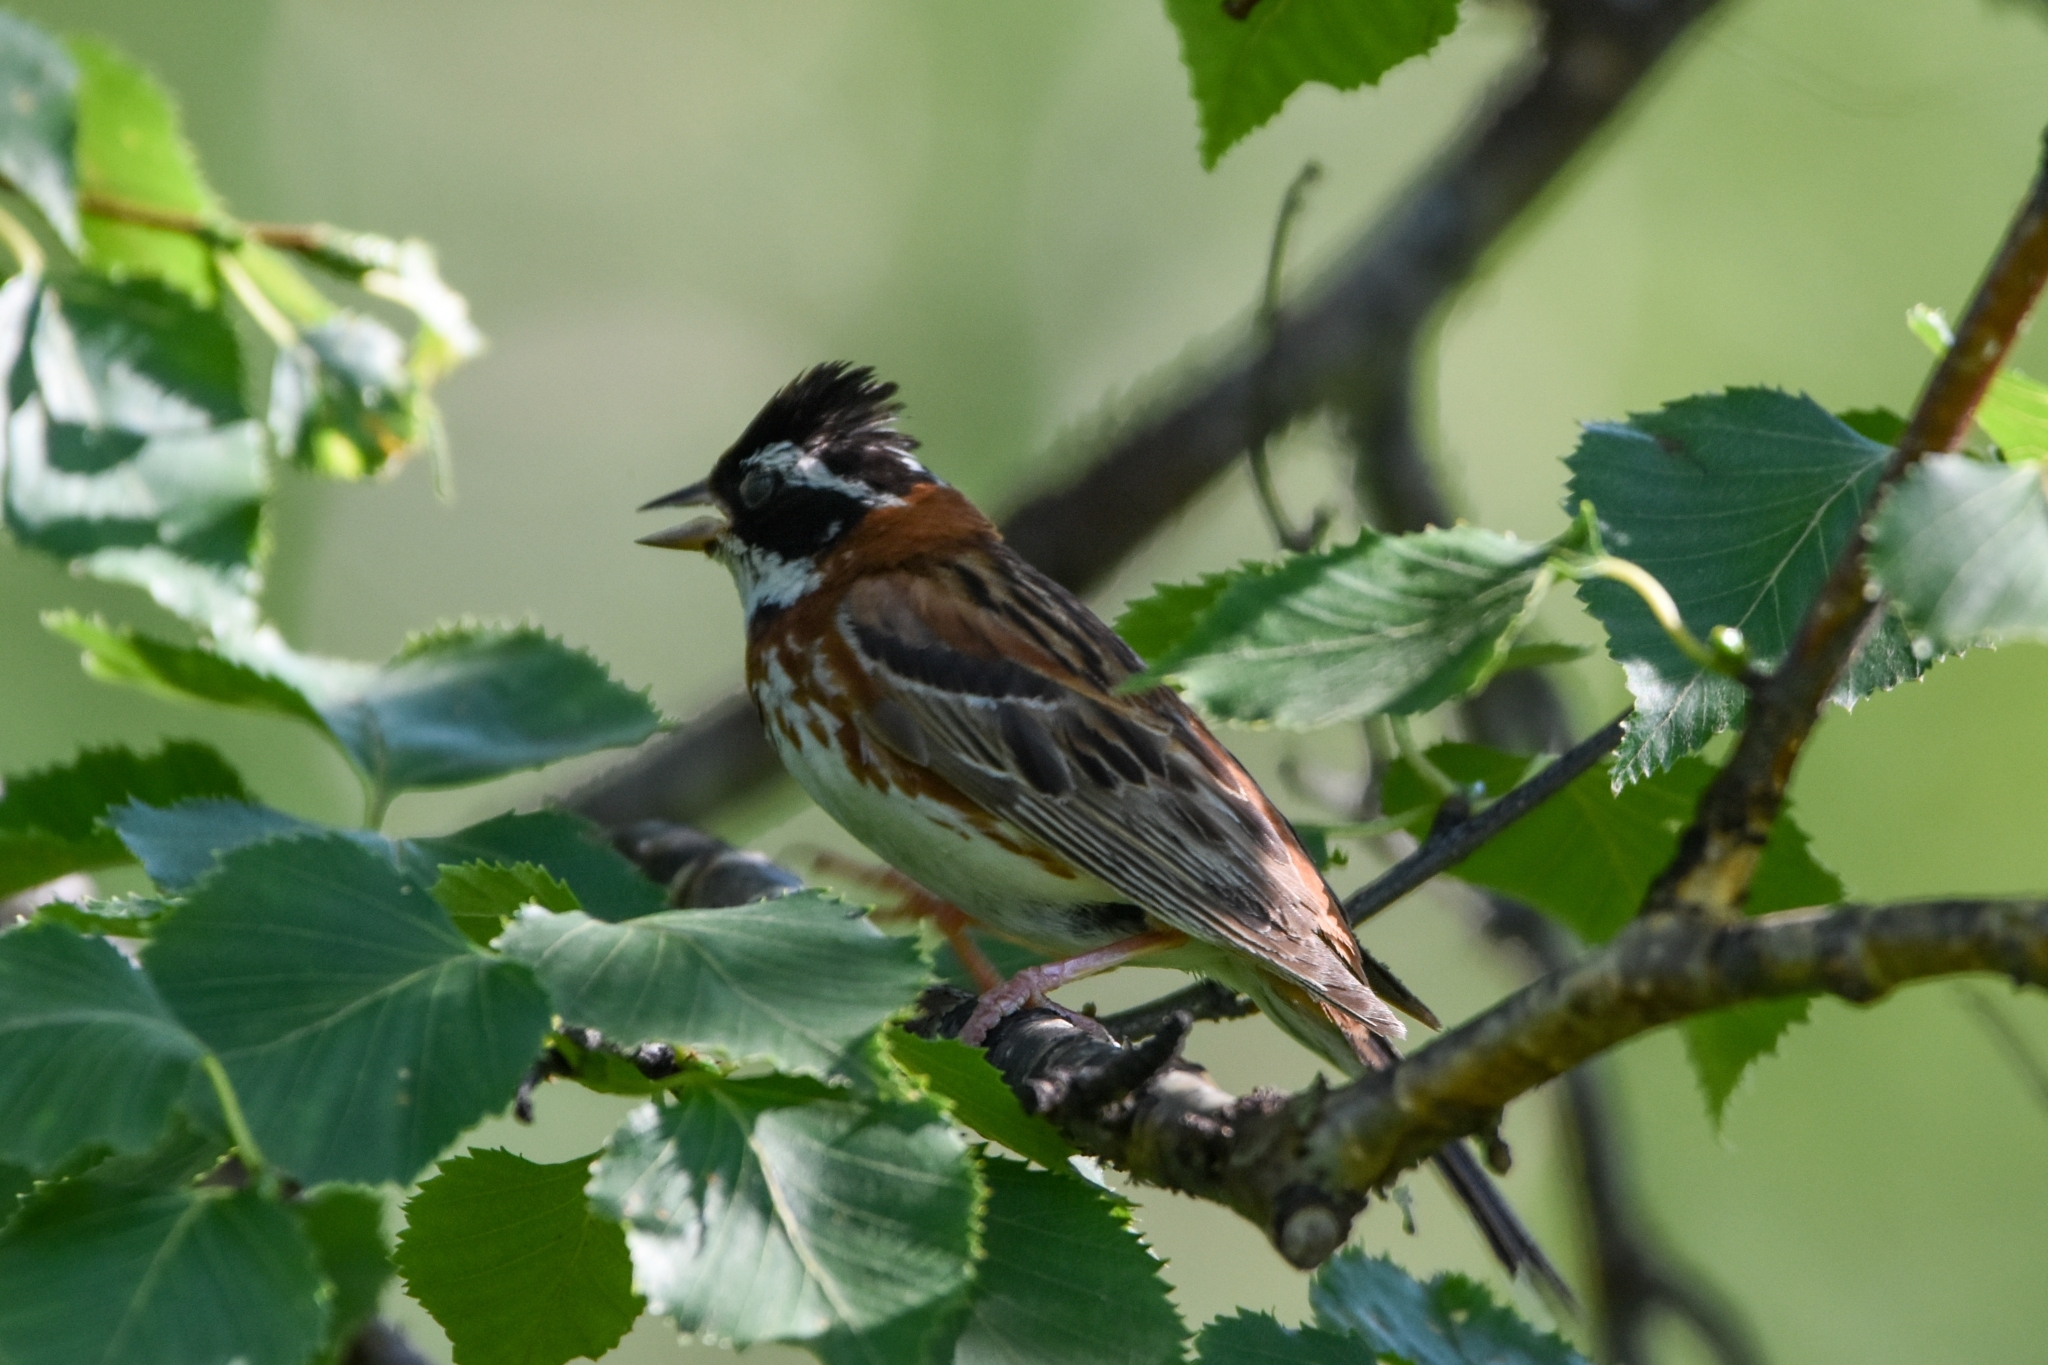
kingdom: Animalia
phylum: Chordata
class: Aves
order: Passeriformes
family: Emberizidae
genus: Emberiza
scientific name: Emberiza rustica
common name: Rustic bunting
